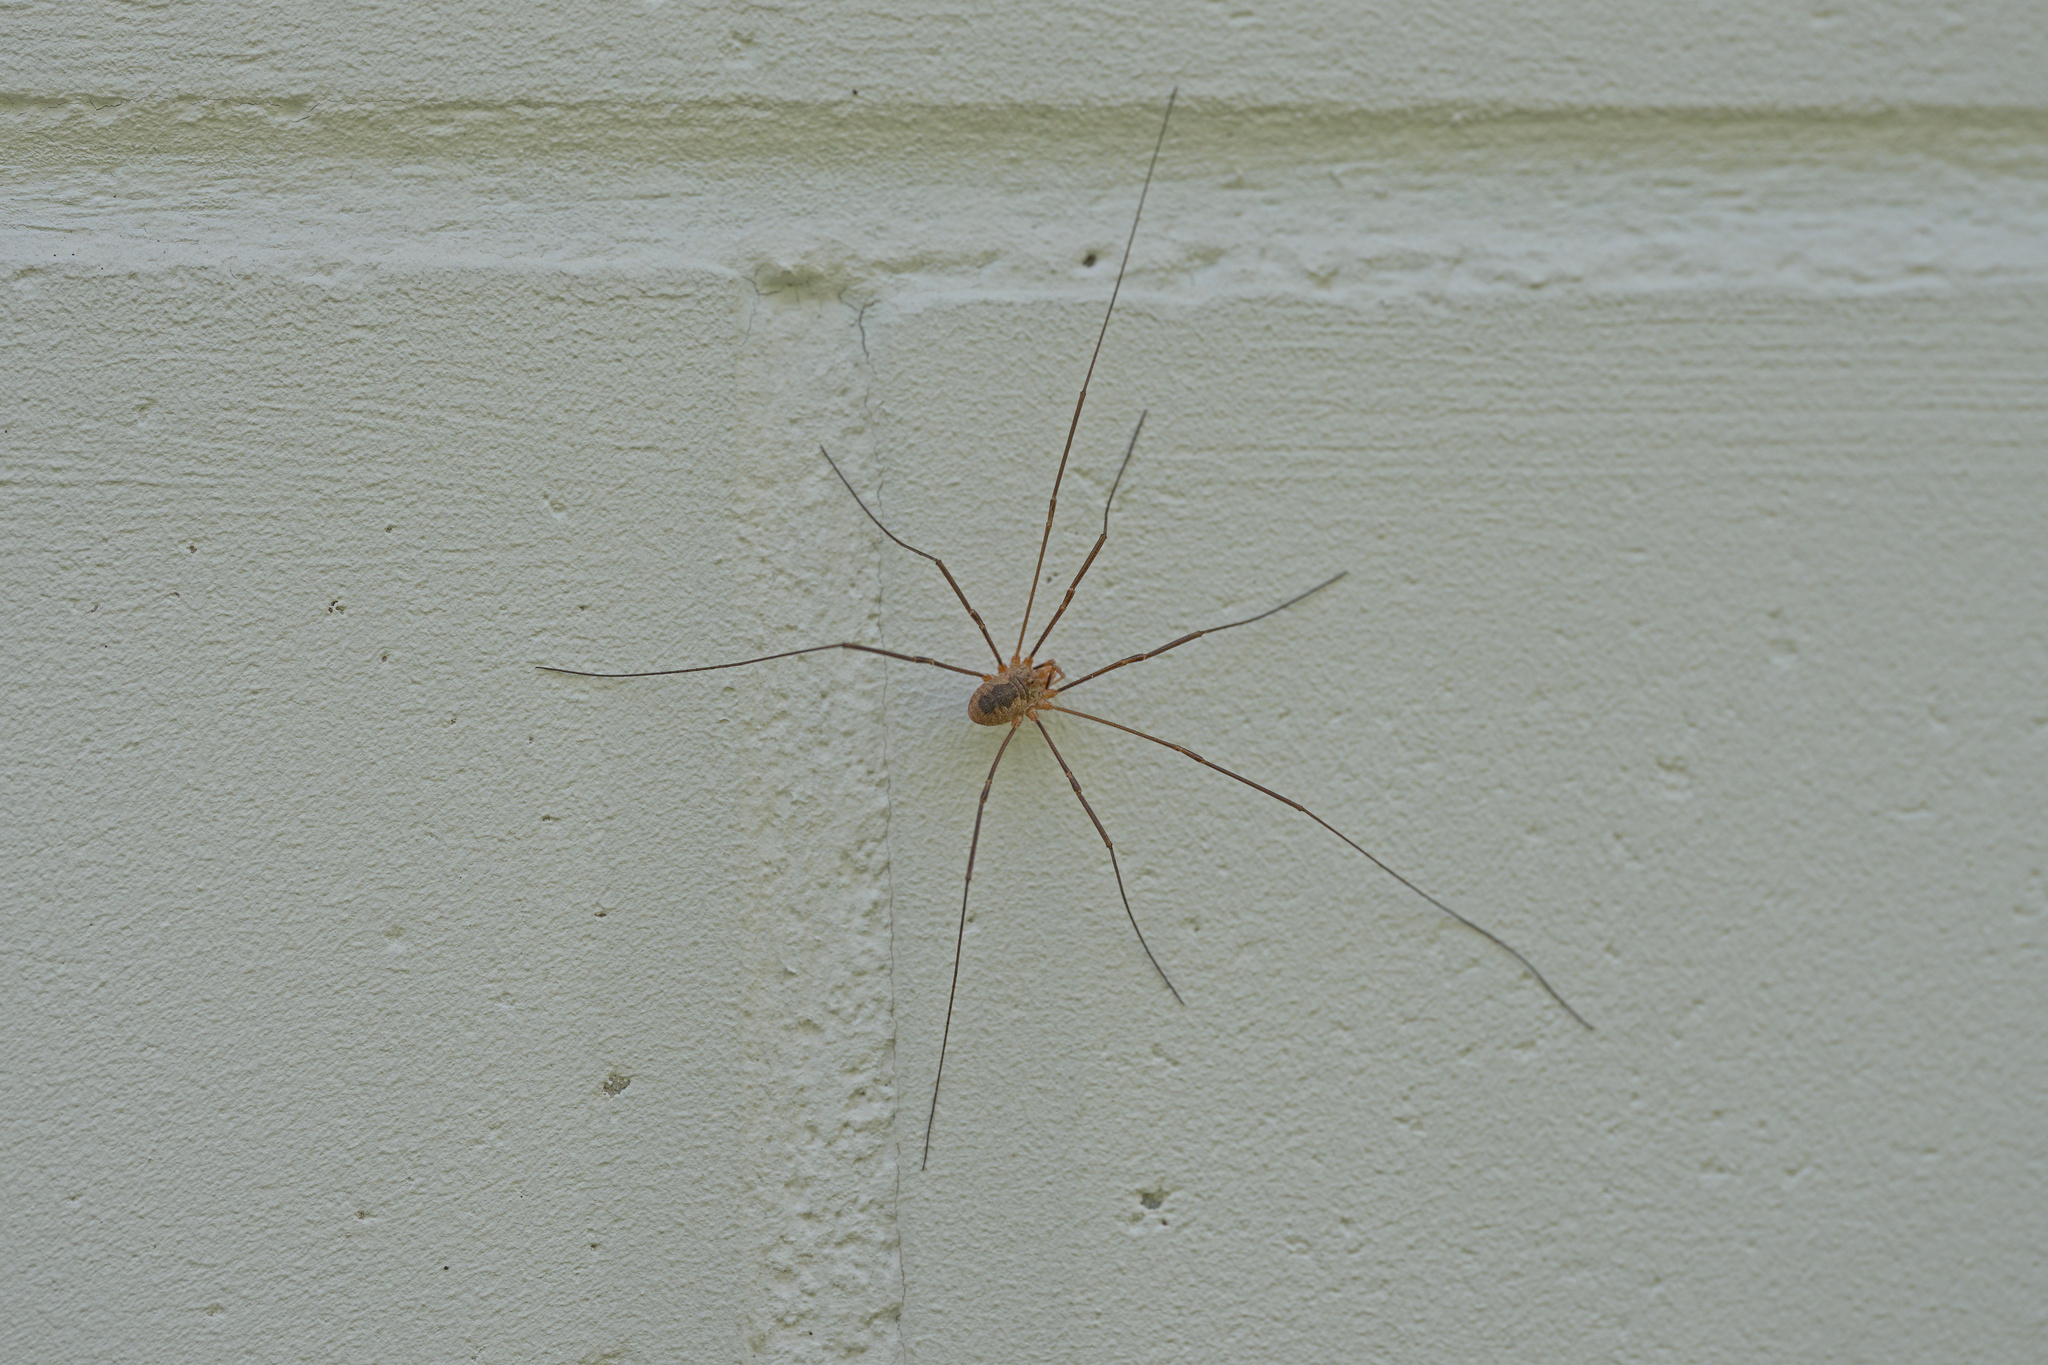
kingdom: Animalia
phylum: Arthropoda
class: Arachnida
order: Opiliones
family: Phalangiidae
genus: Phalangium
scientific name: Phalangium opilio
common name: Daddy longleg
